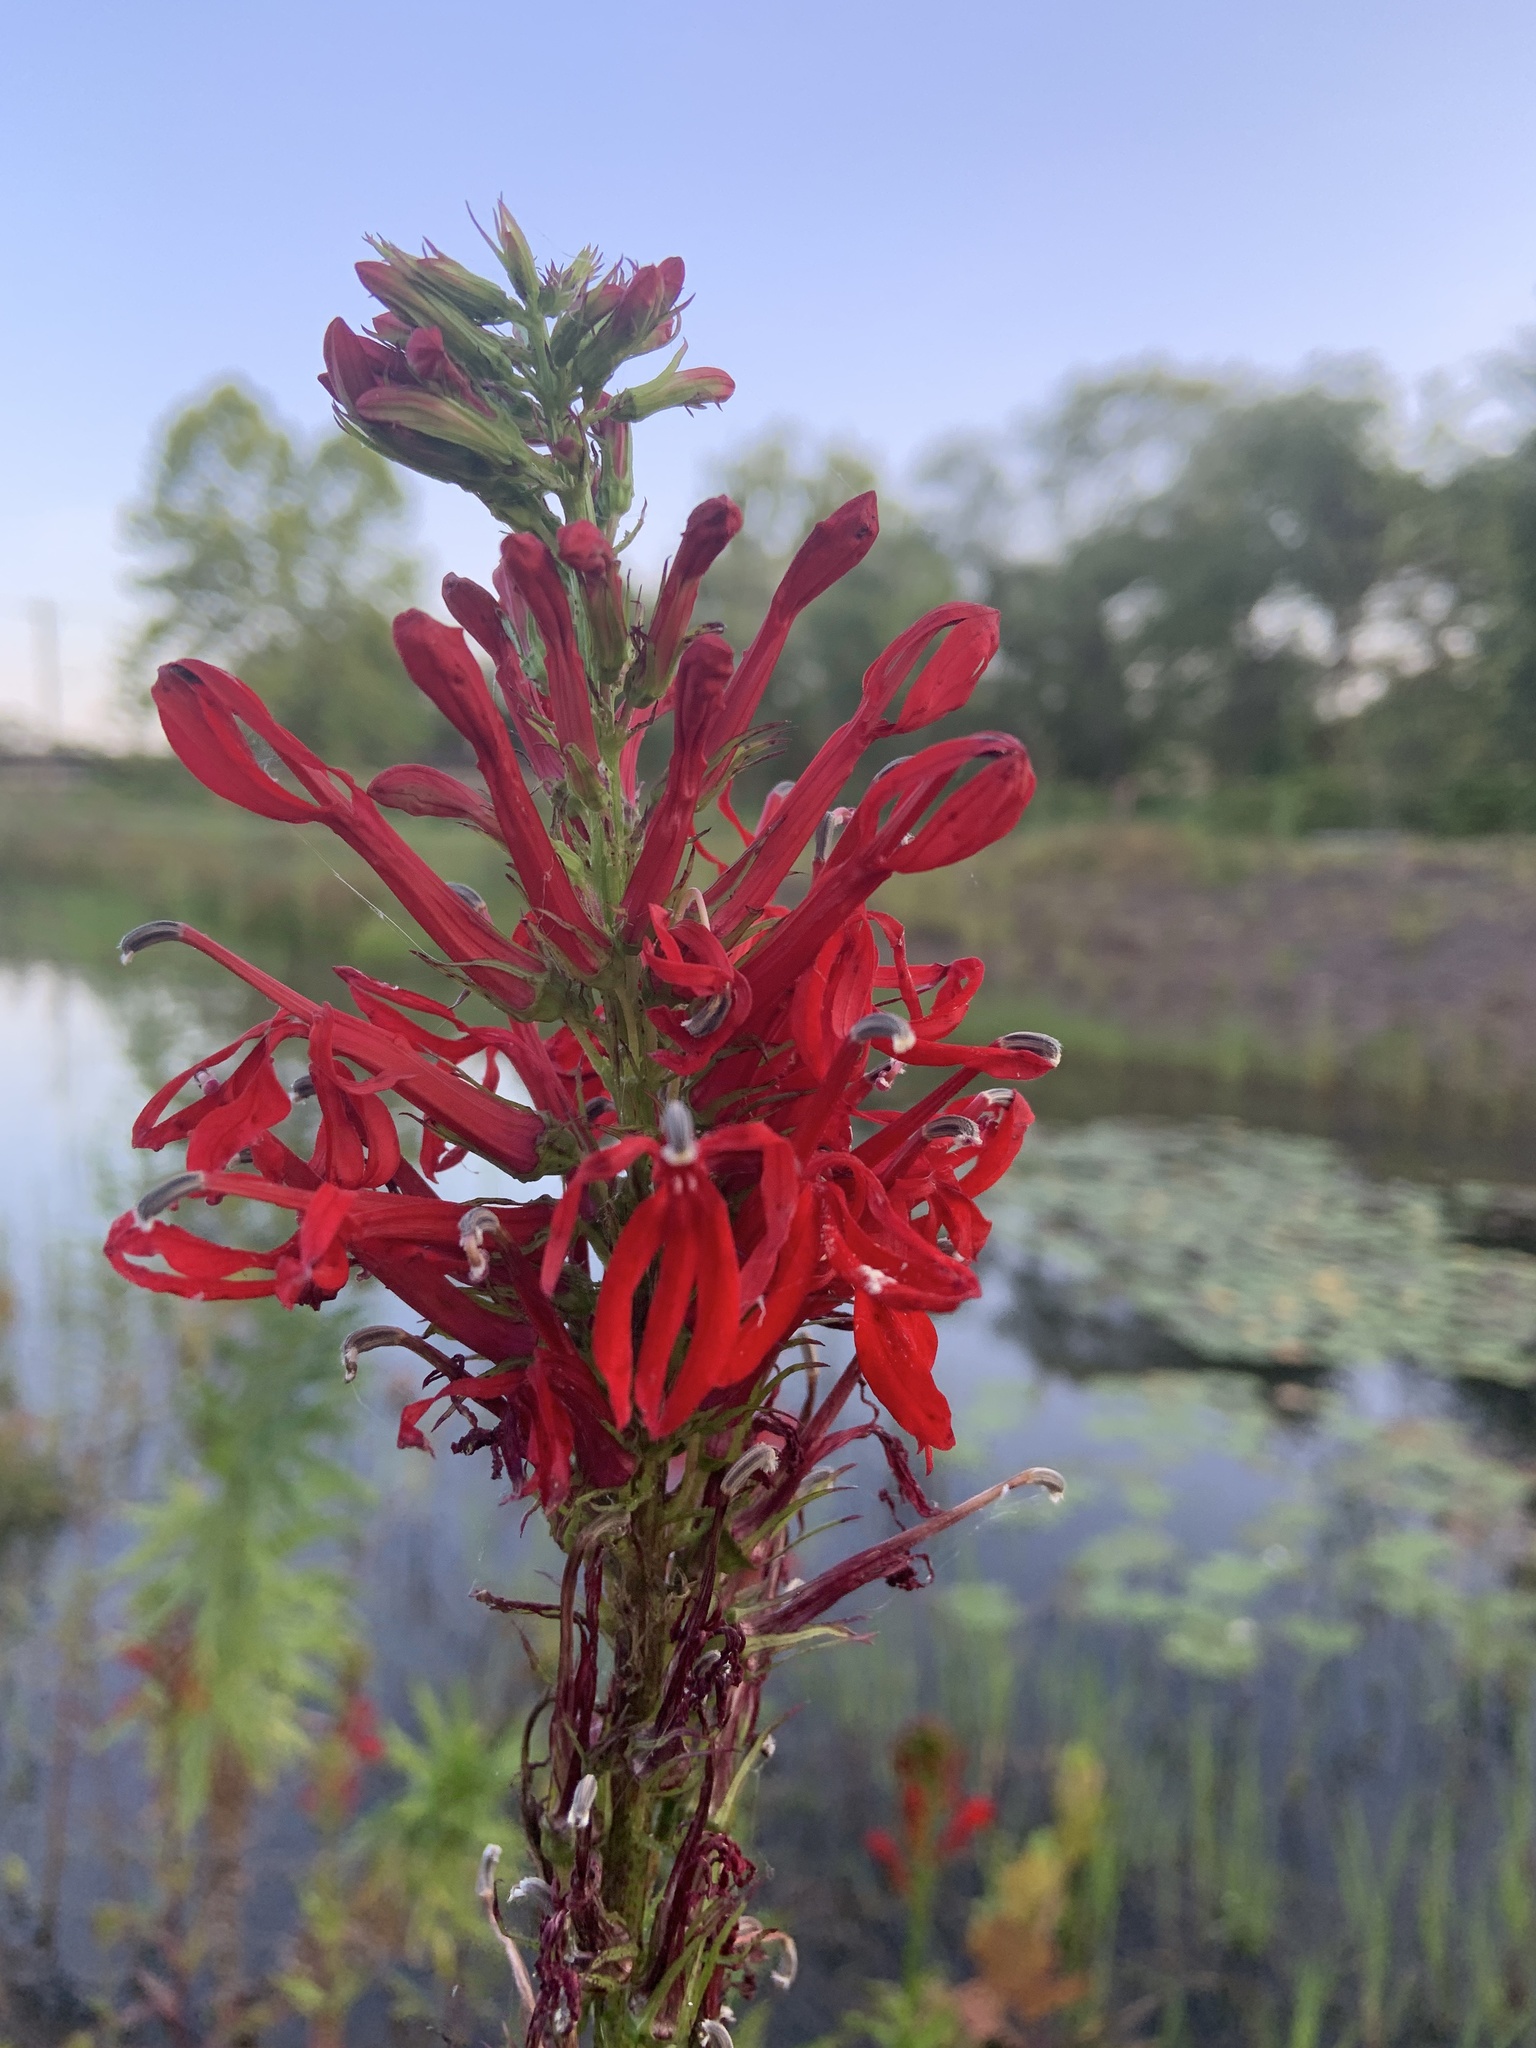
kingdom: Plantae
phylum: Tracheophyta
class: Magnoliopsida
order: Asterales
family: Campanulaceae
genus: Lobelia
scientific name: Lobelia cardinalis
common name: Cardinal flower
